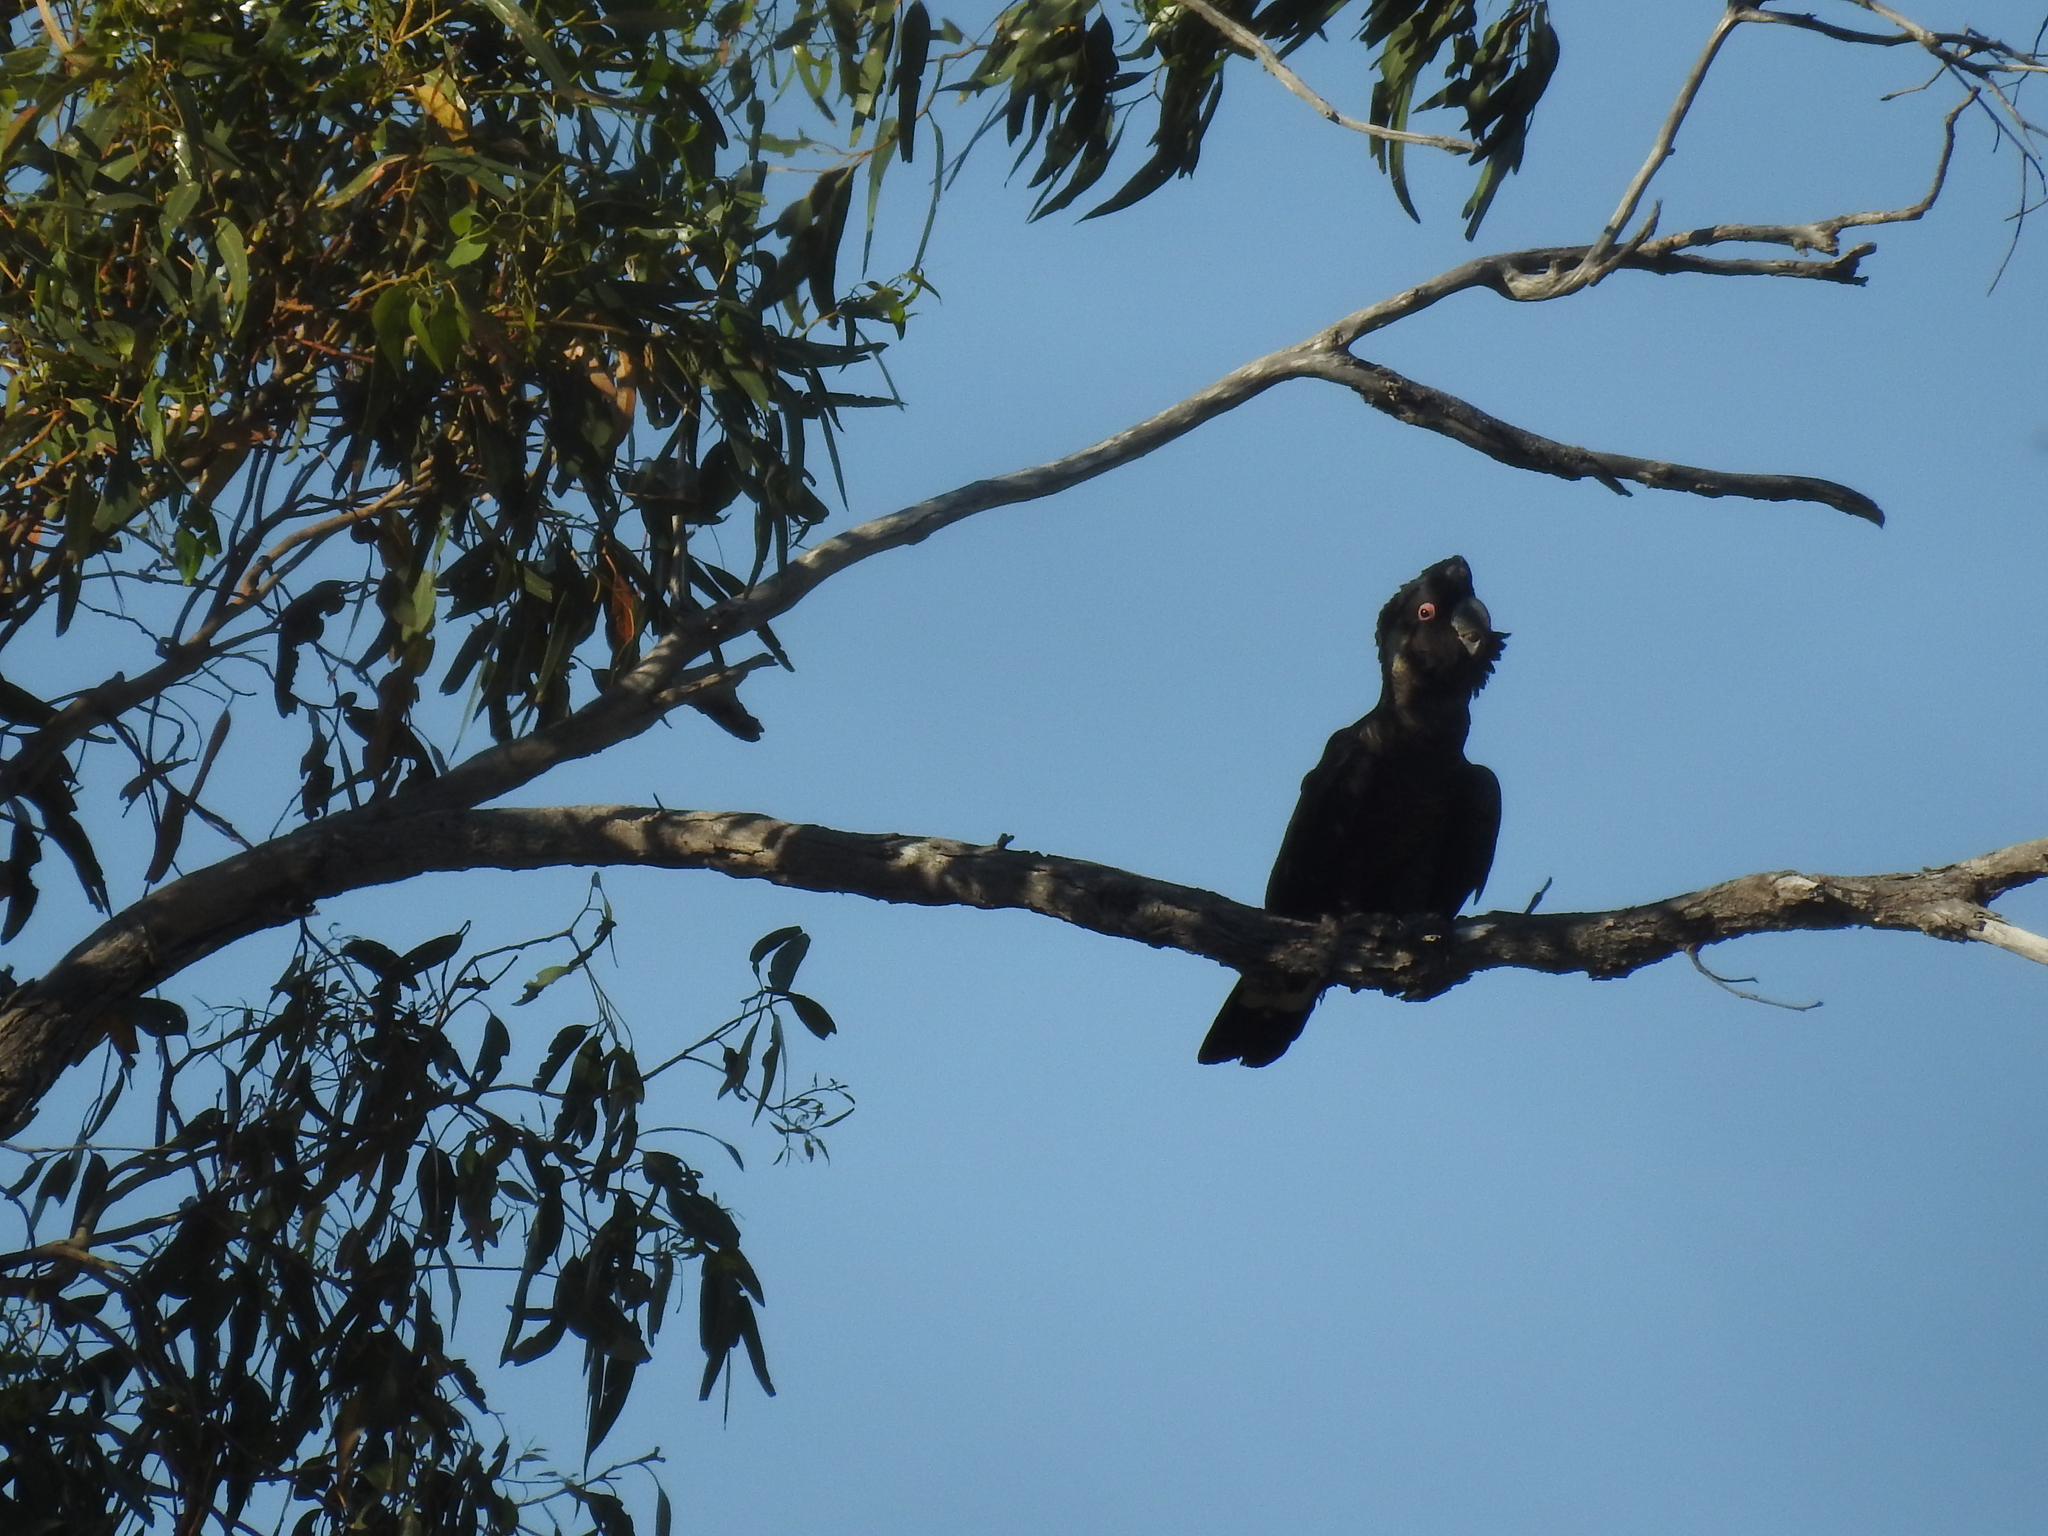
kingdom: Animalia
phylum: Chordata
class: Aves
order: Psittaciformes
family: Cacatuidae
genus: Zanda
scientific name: Zanda latirostris
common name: Short-billed black-cockatoo
